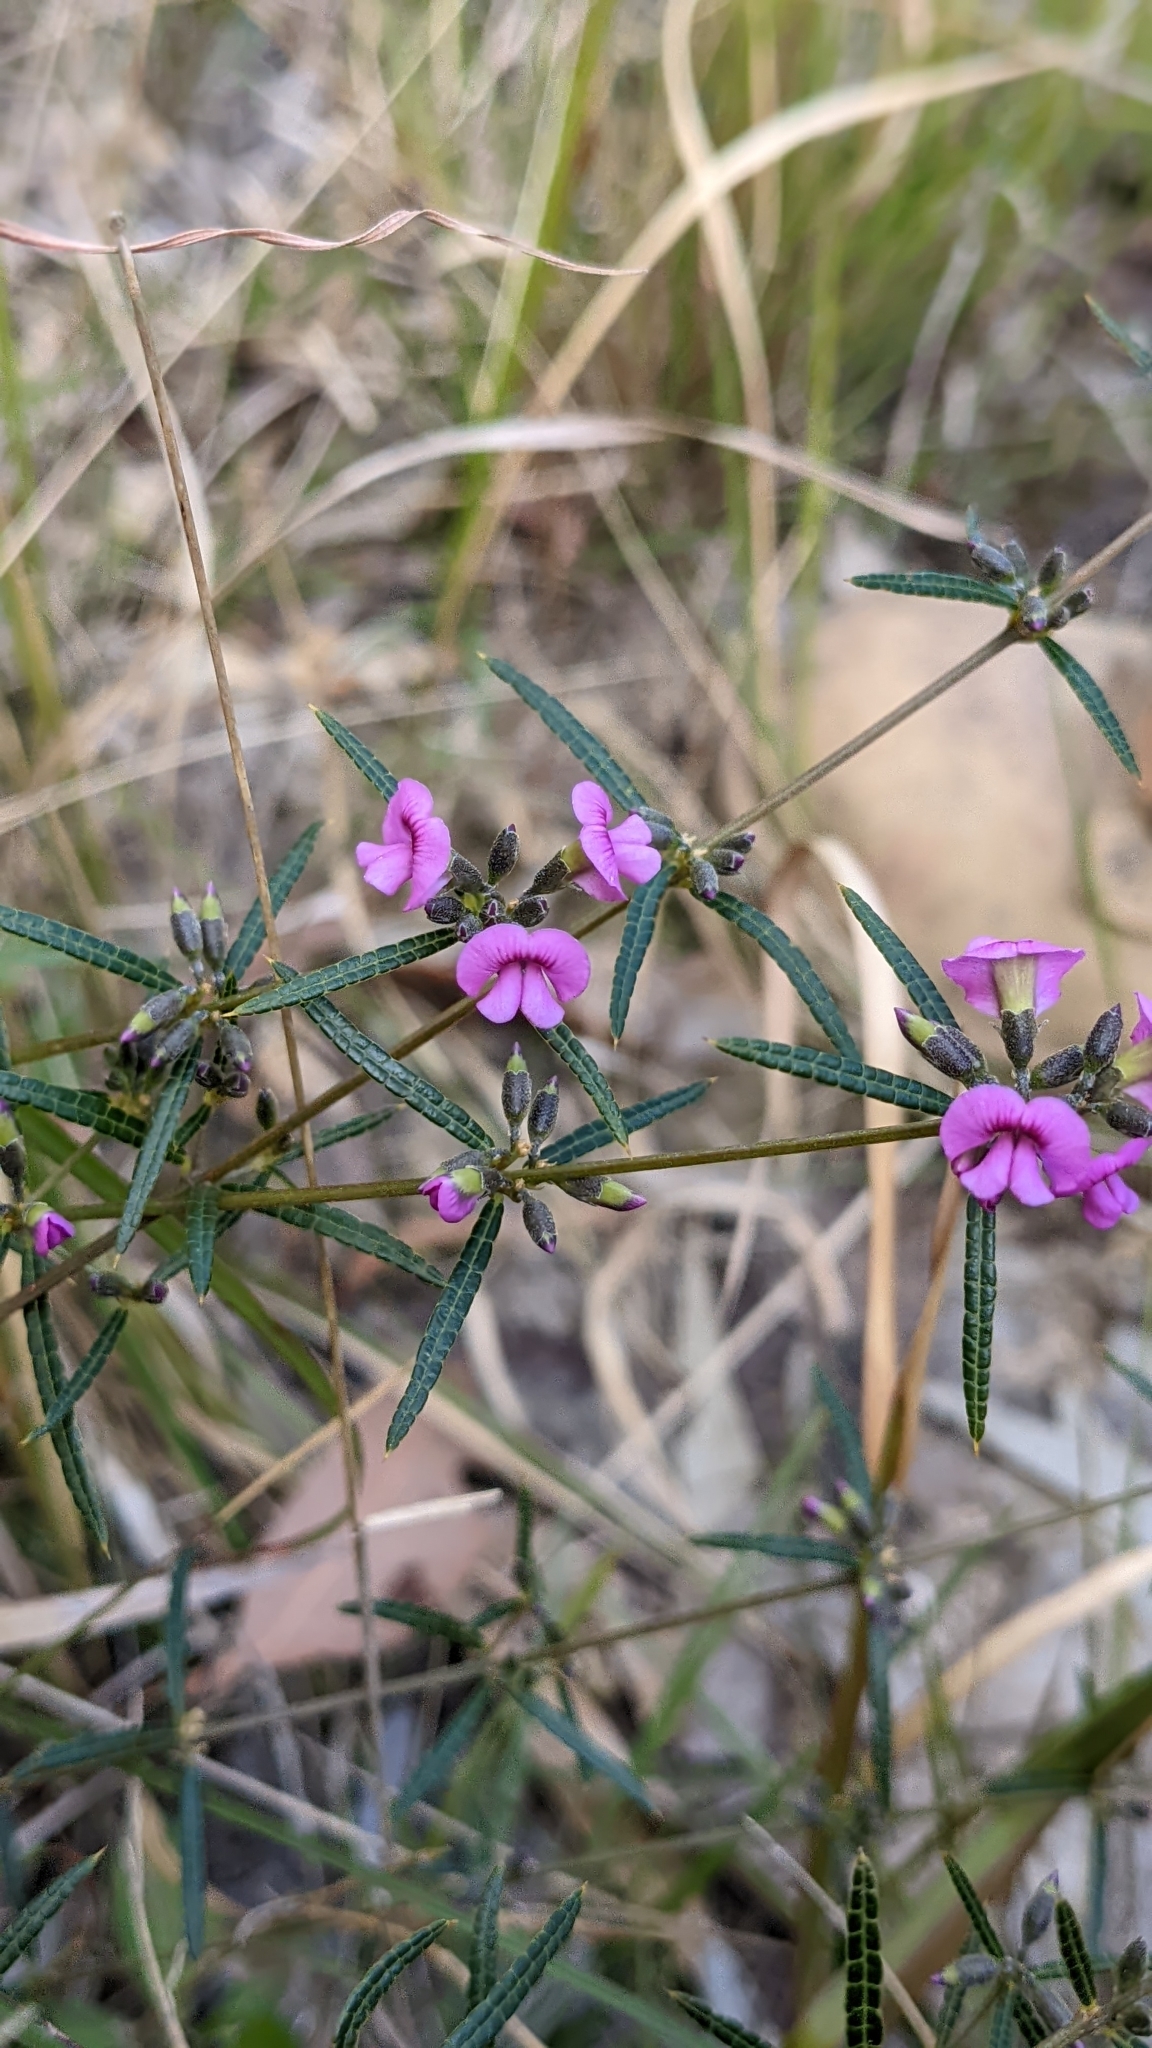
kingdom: Plantae
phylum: Tracheophyta
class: Magnoliopsida
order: Fabales
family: Fabaceae
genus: Mirbelia
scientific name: Mirbelia rubiifolia
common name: Heathy mirbelia
